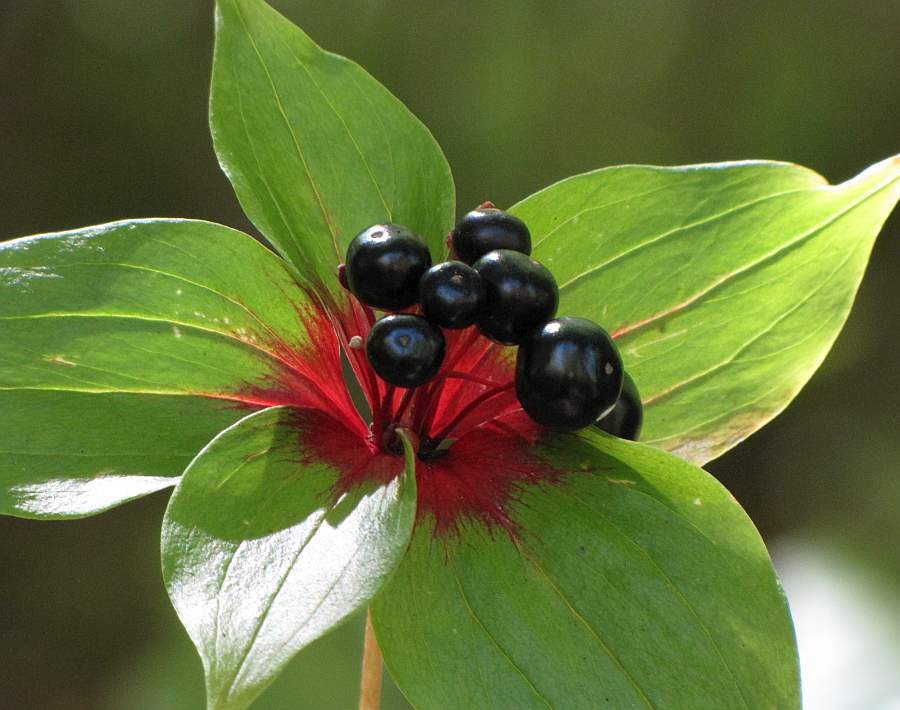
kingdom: Plantae
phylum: Tracheophyta
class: Liliopsida
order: Liliales
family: Liliaceae
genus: Medeola
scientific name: Medeola virginiana
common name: Indian cucumber-root
